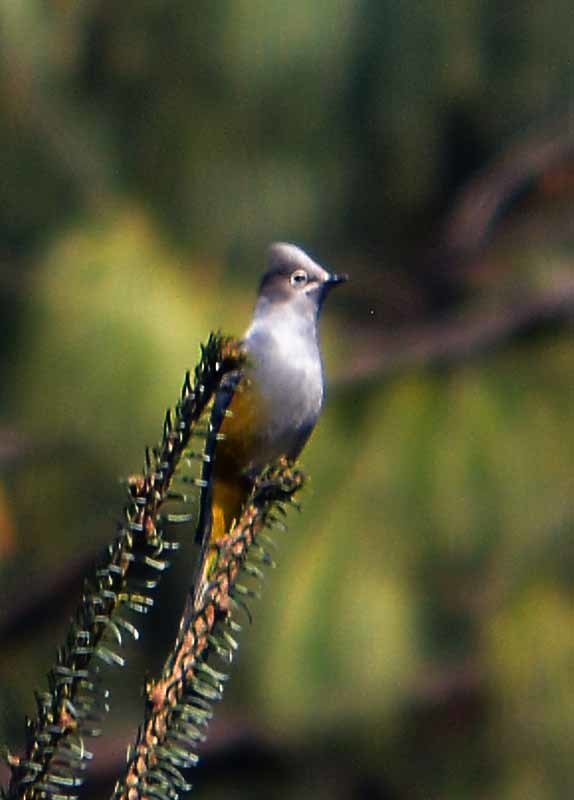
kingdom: Animalia
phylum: Chordata
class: Aves
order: Passeriformes
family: Ptilogonatidae
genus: Ptilogonys
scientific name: Ptilogonys cinereus
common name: Gray silky-flycatcher
